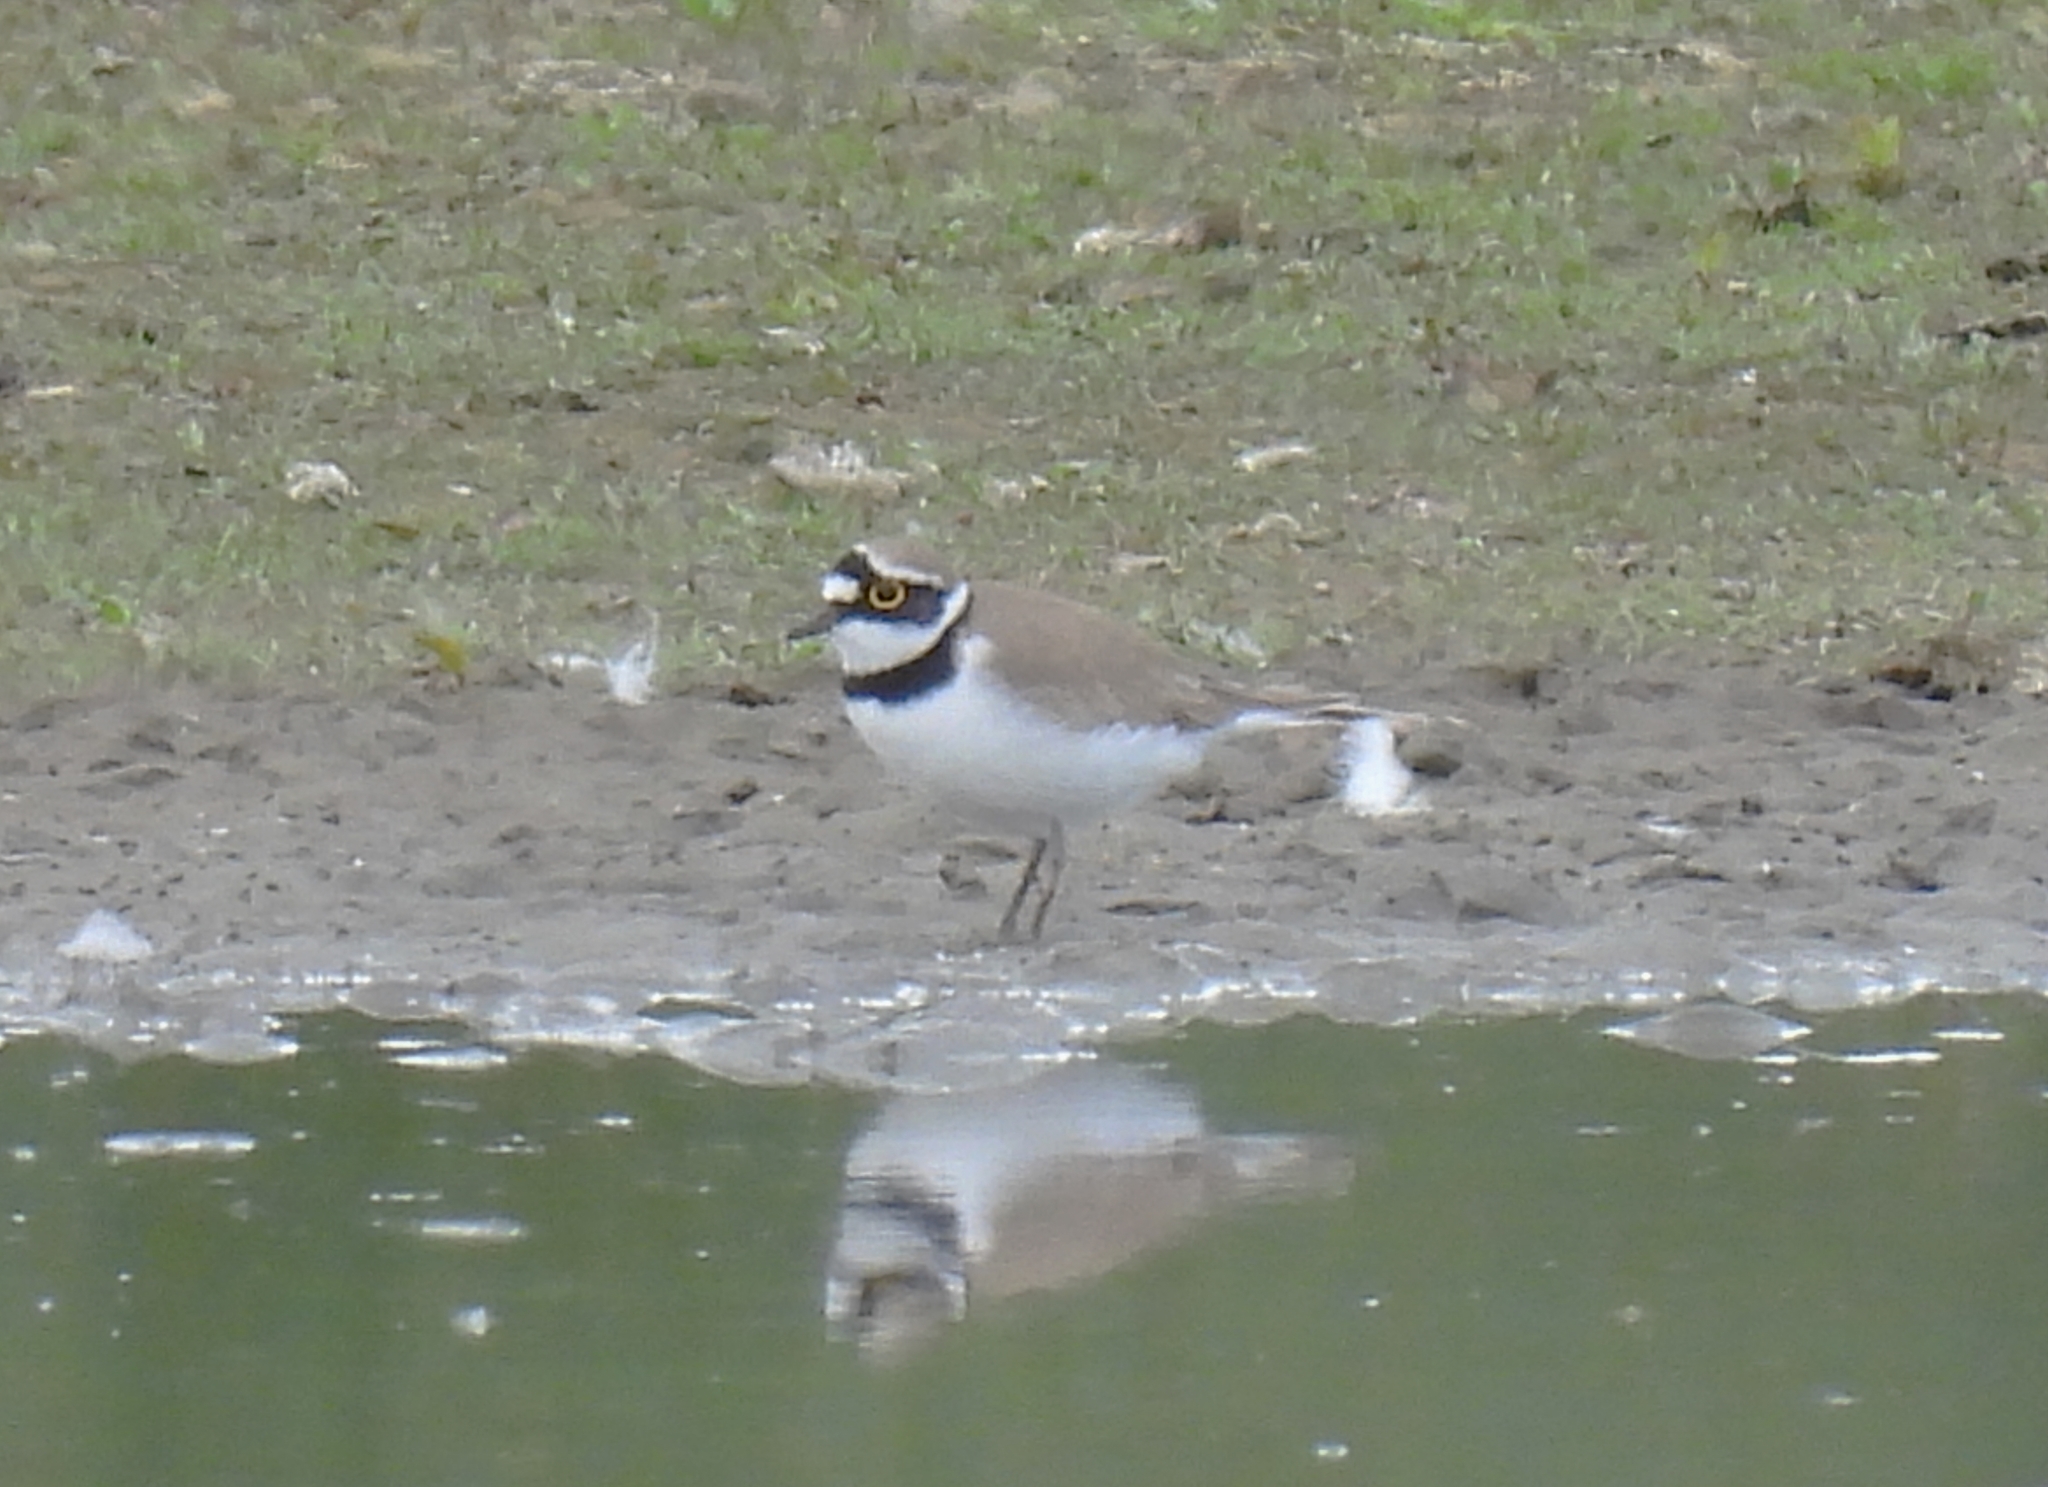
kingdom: Animalia
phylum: Chordata
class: Aves
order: Charadriiformes
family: Charadriidae
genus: Charadrius
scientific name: Charadrius dubius
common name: Little ringed plover
